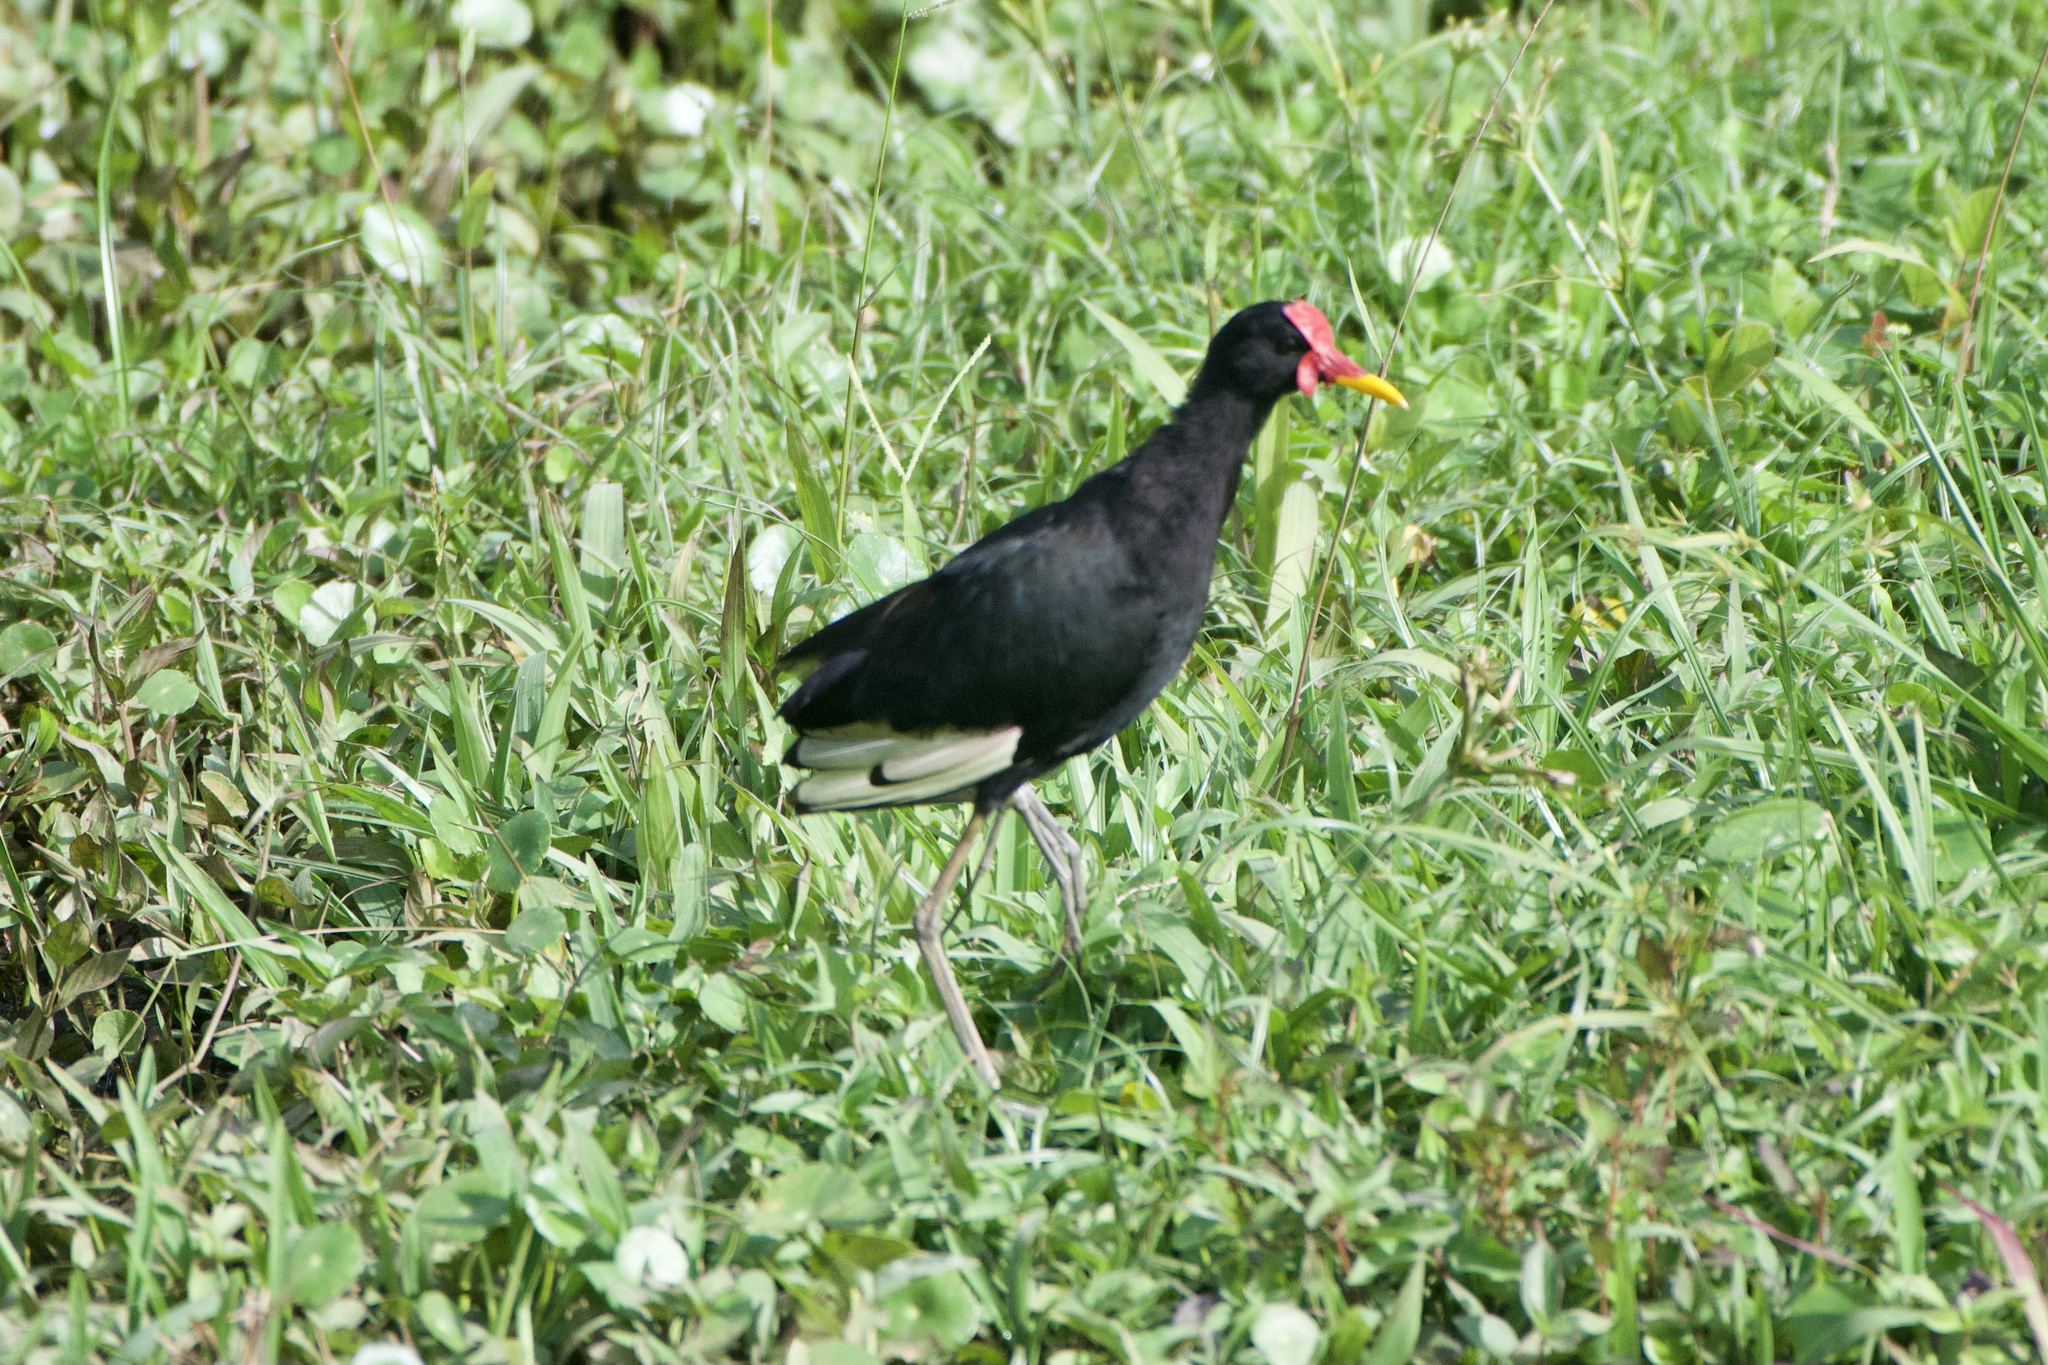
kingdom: Animalia
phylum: Chordata
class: Aves
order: Charadriiformes
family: Jacanidae
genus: Jacana
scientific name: Jacana jacana
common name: Wattled jacana
